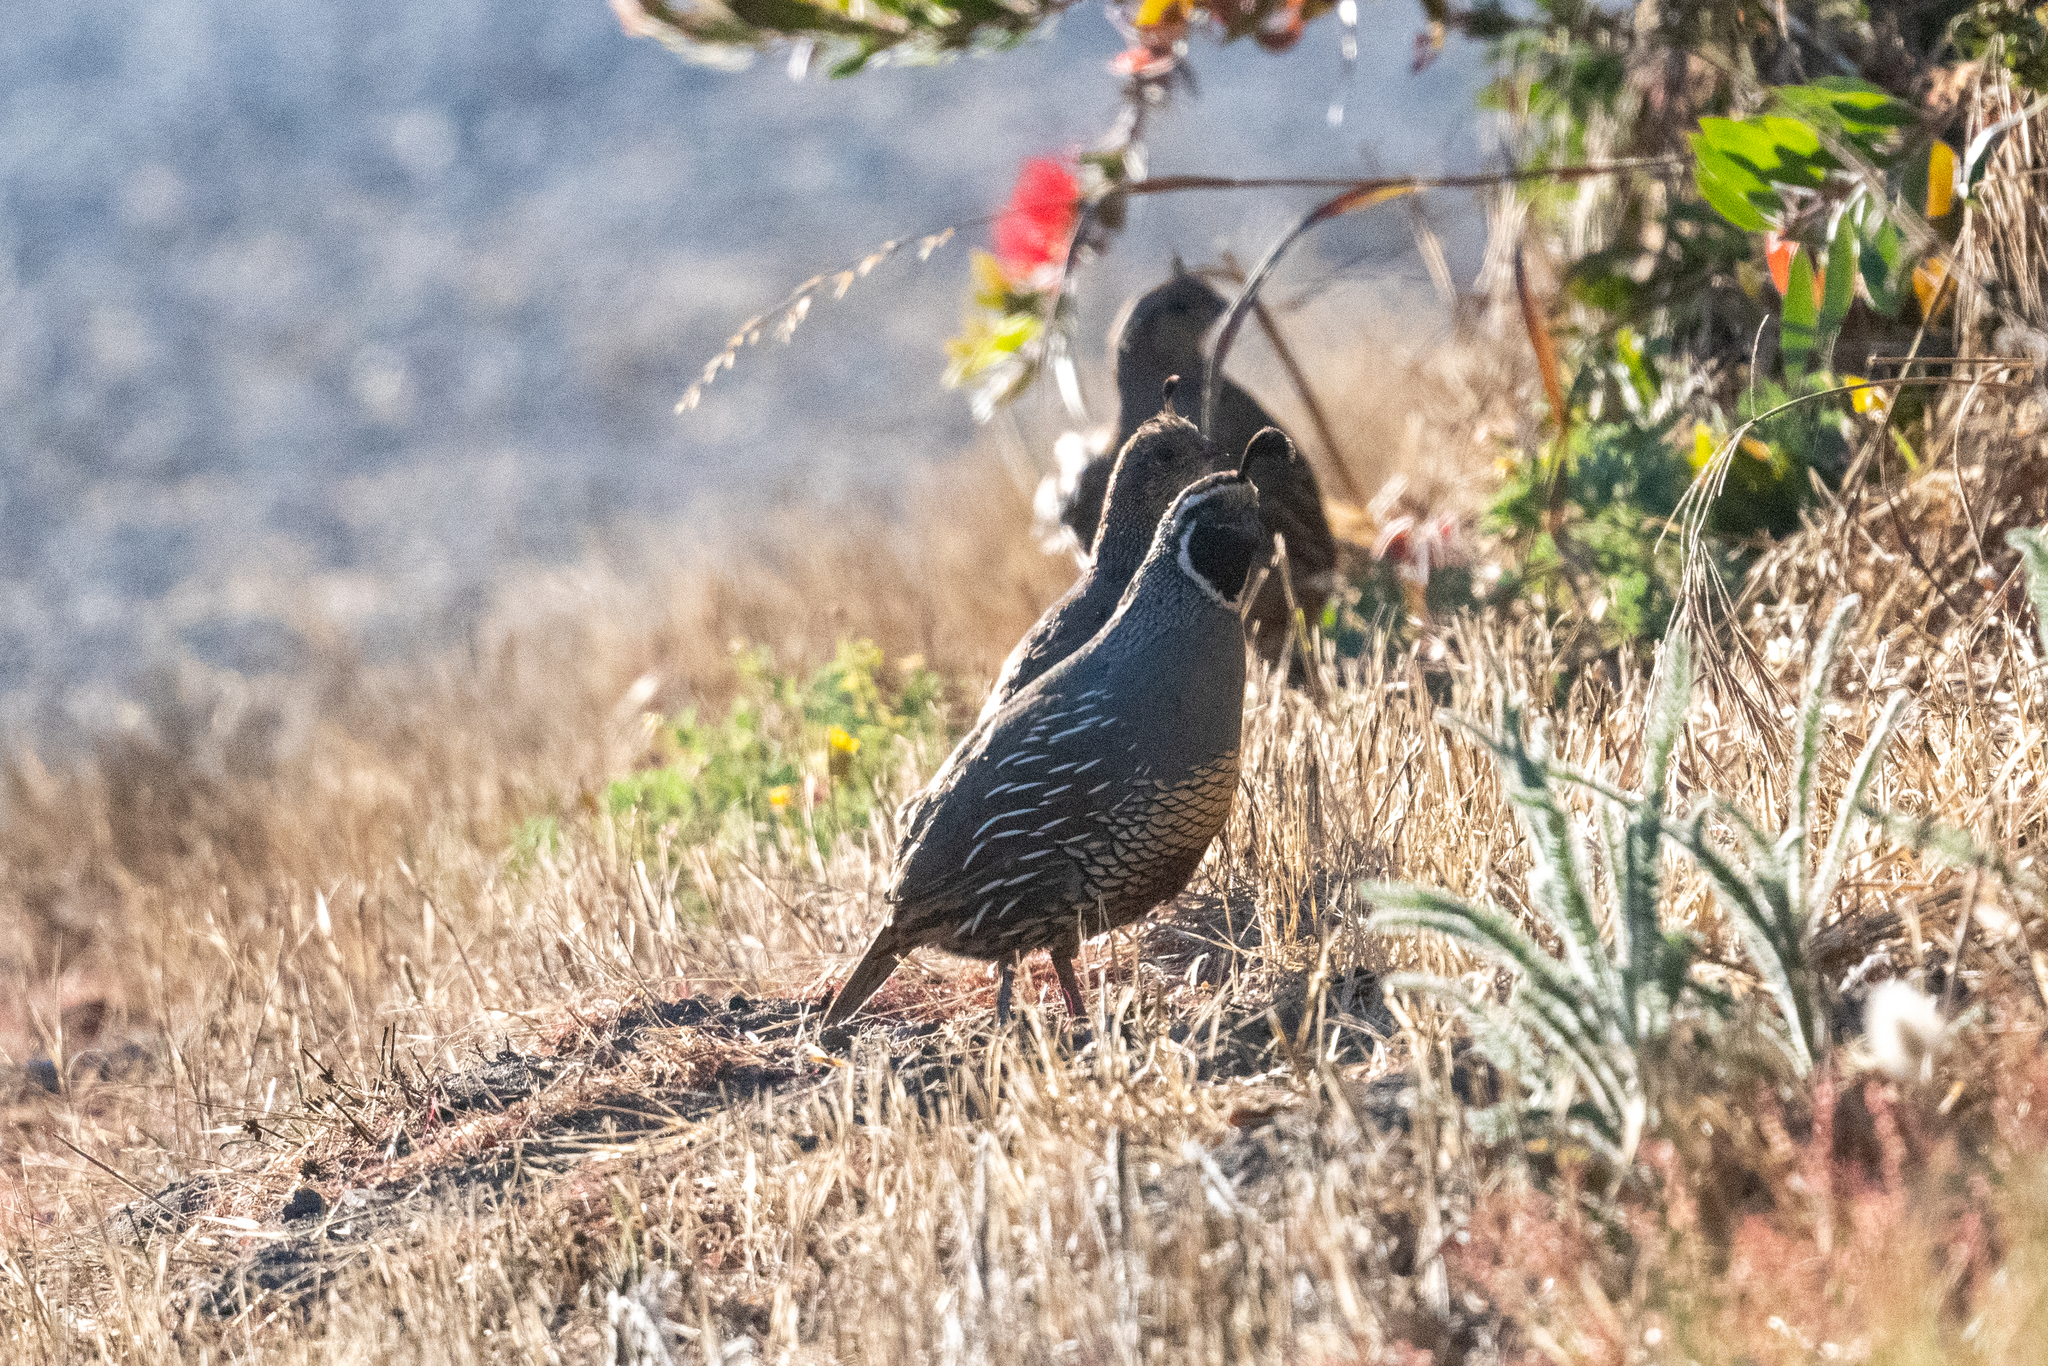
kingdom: Animalia
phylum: Chordata
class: Aves
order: Galliformes
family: Odontophoridae
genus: Callipepla
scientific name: Callipepla californica
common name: California quail
